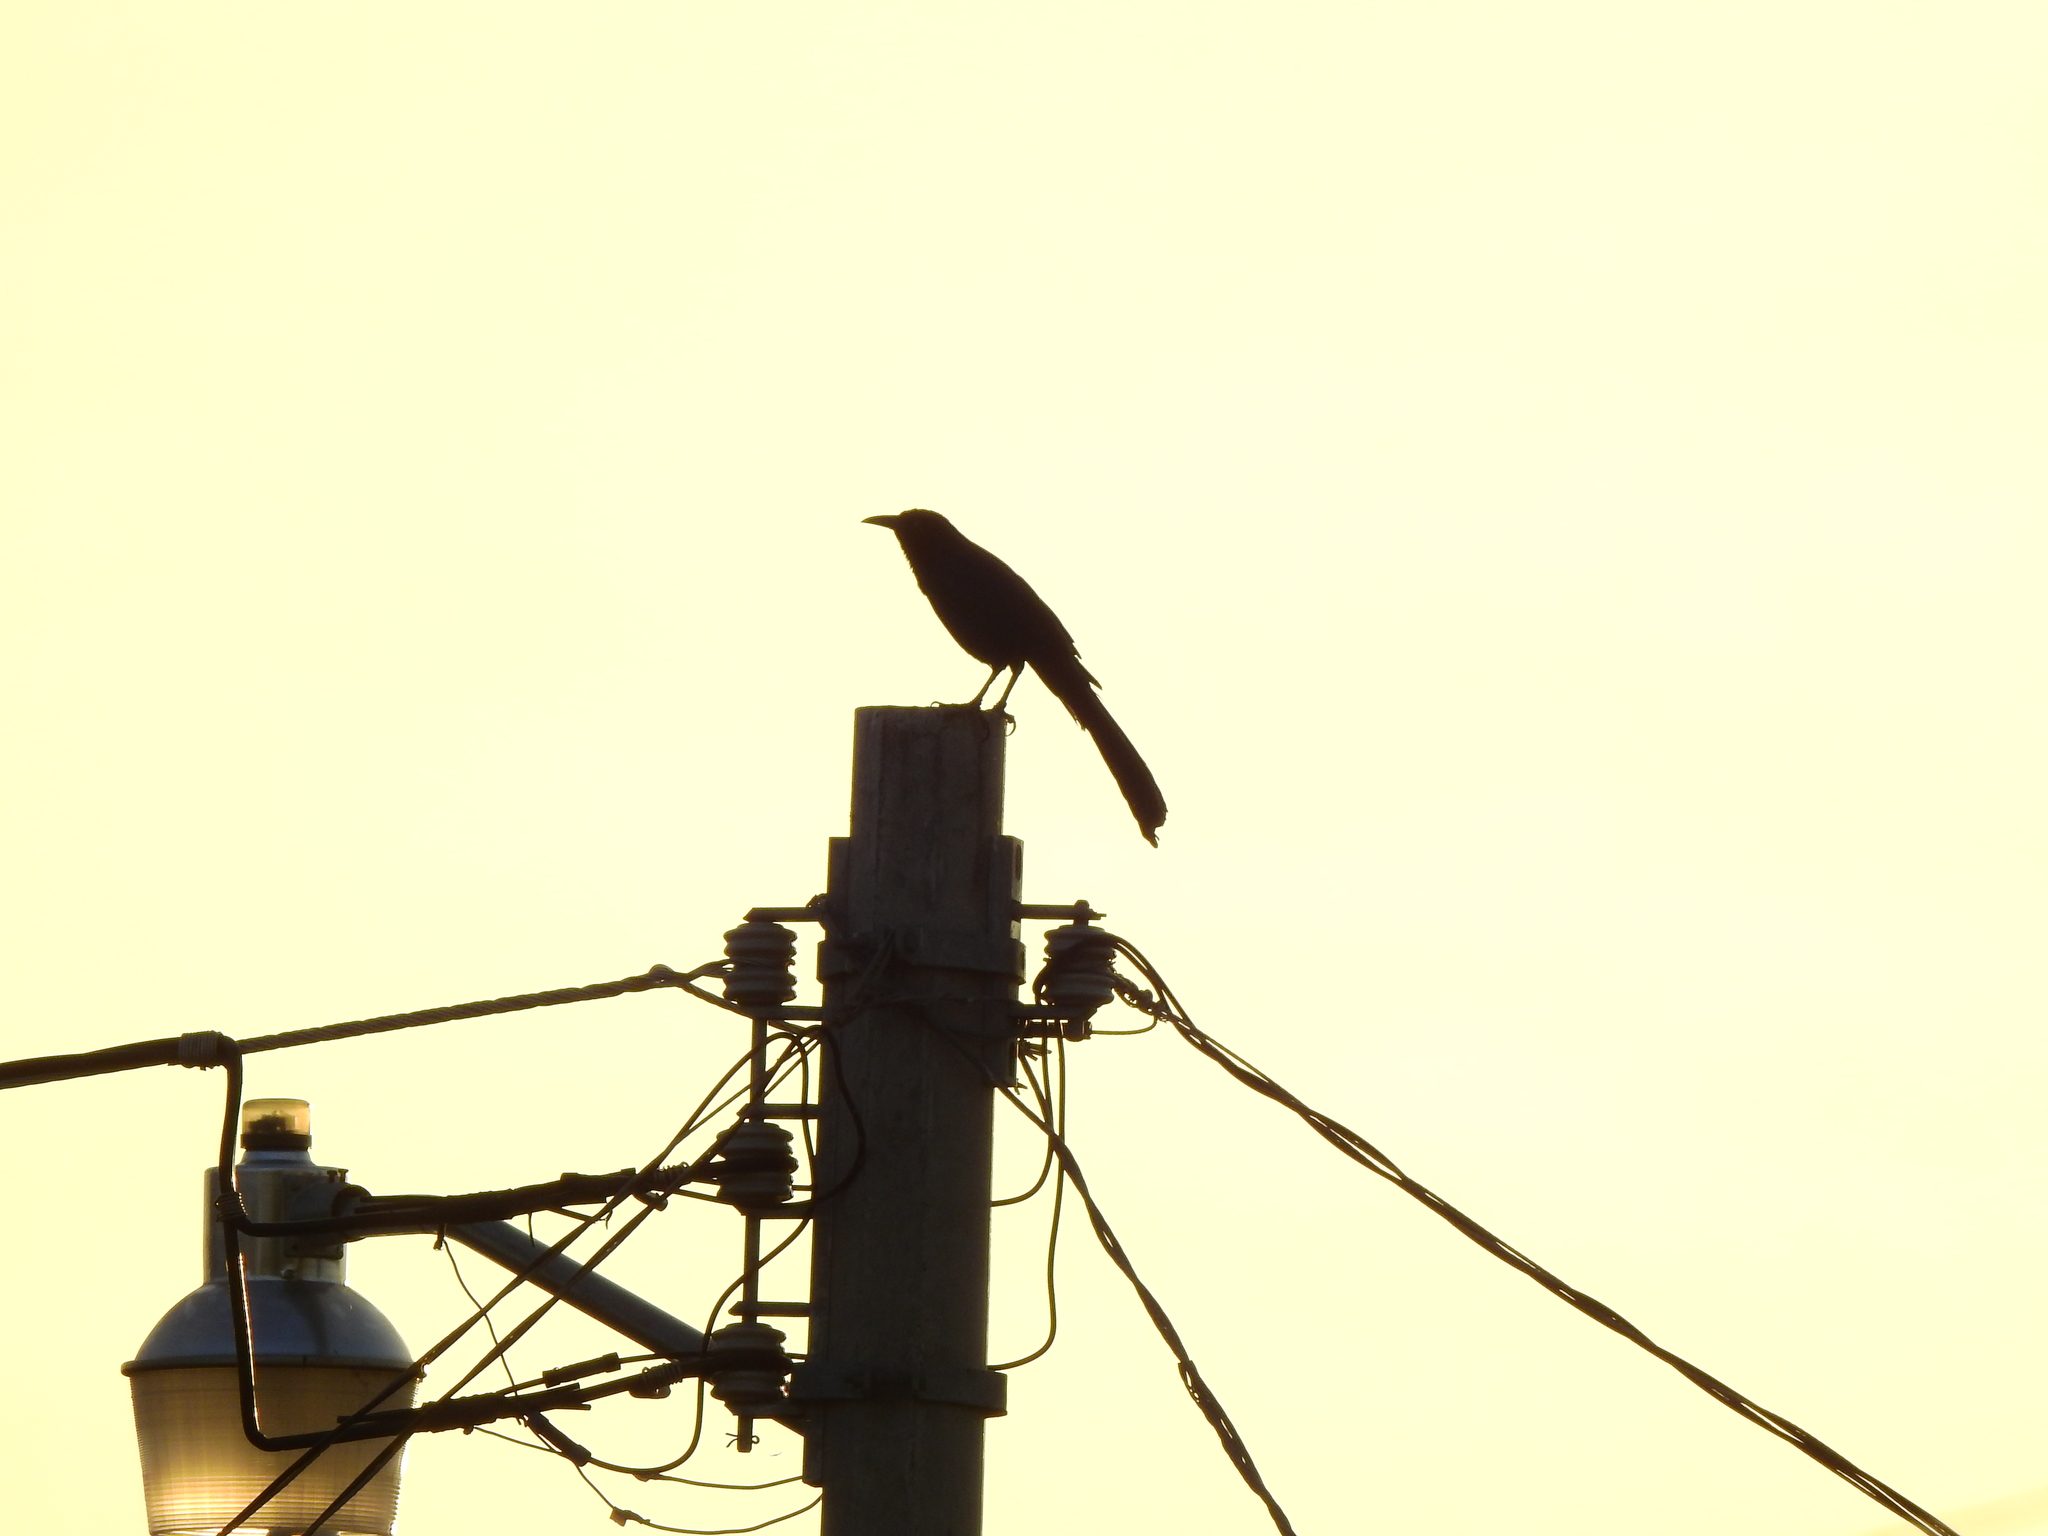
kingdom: Animalia
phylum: Chordata
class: Aves
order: Passeriformes
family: Icteridae
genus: Quiscalus
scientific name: Quiscalus mexicanus
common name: Great-tailed grackle
